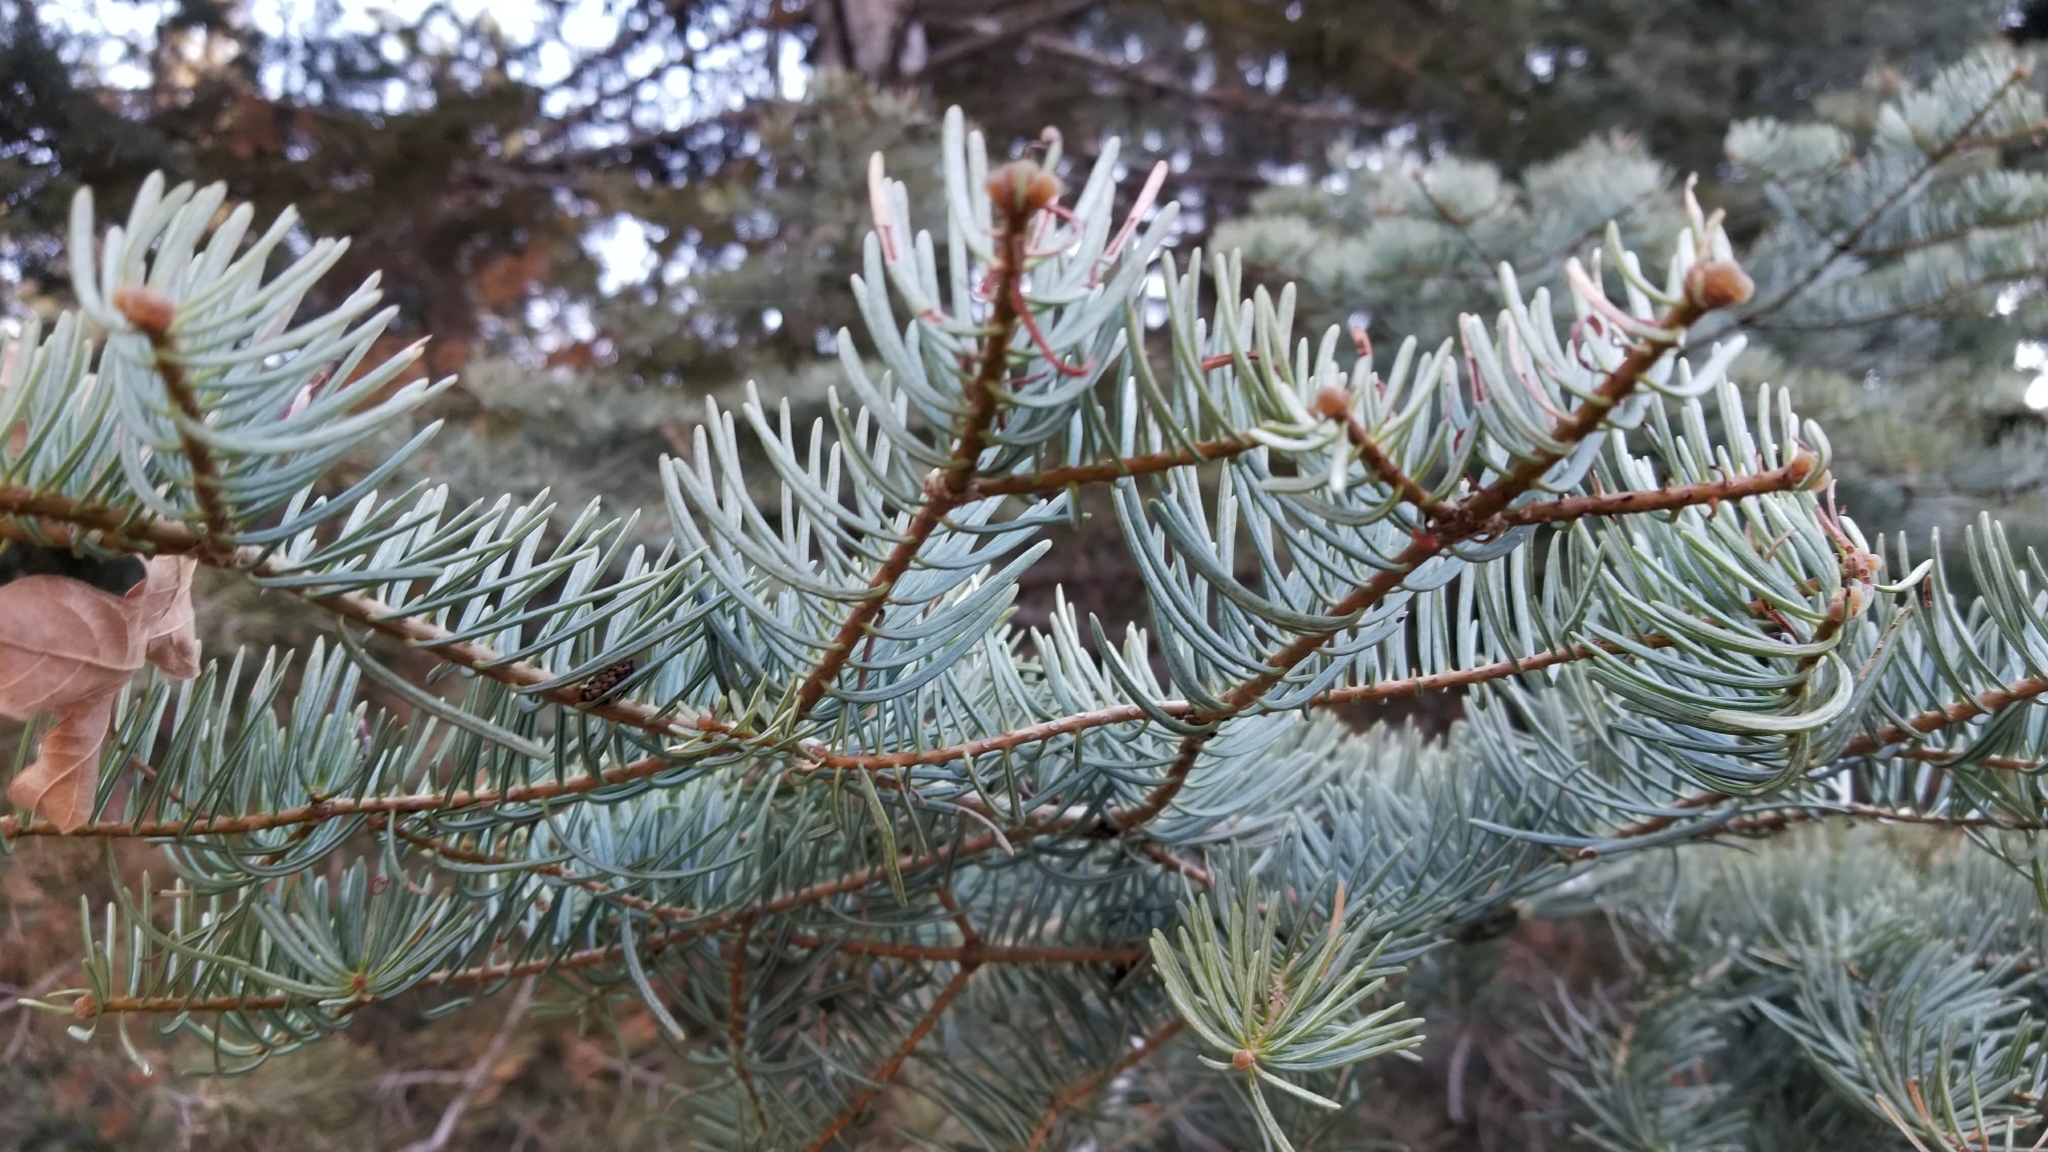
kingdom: Plantae
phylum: Tracheophyta
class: Pinopsida
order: Pinales
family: Pinaceae
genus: Abies
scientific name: Abies concolor
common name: Colorado fir
